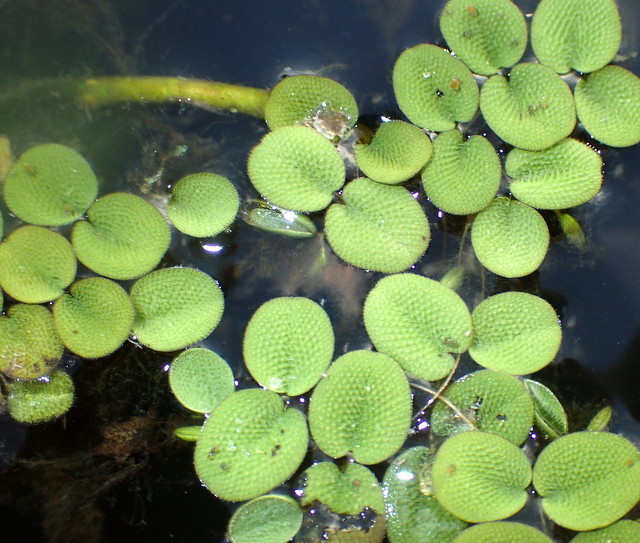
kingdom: Plantae
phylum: Tracheophyta
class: Polypodiopsida
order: Salviniales
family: Salviniaceae
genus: Salvinia
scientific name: Salvinia minima
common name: Water spangles
